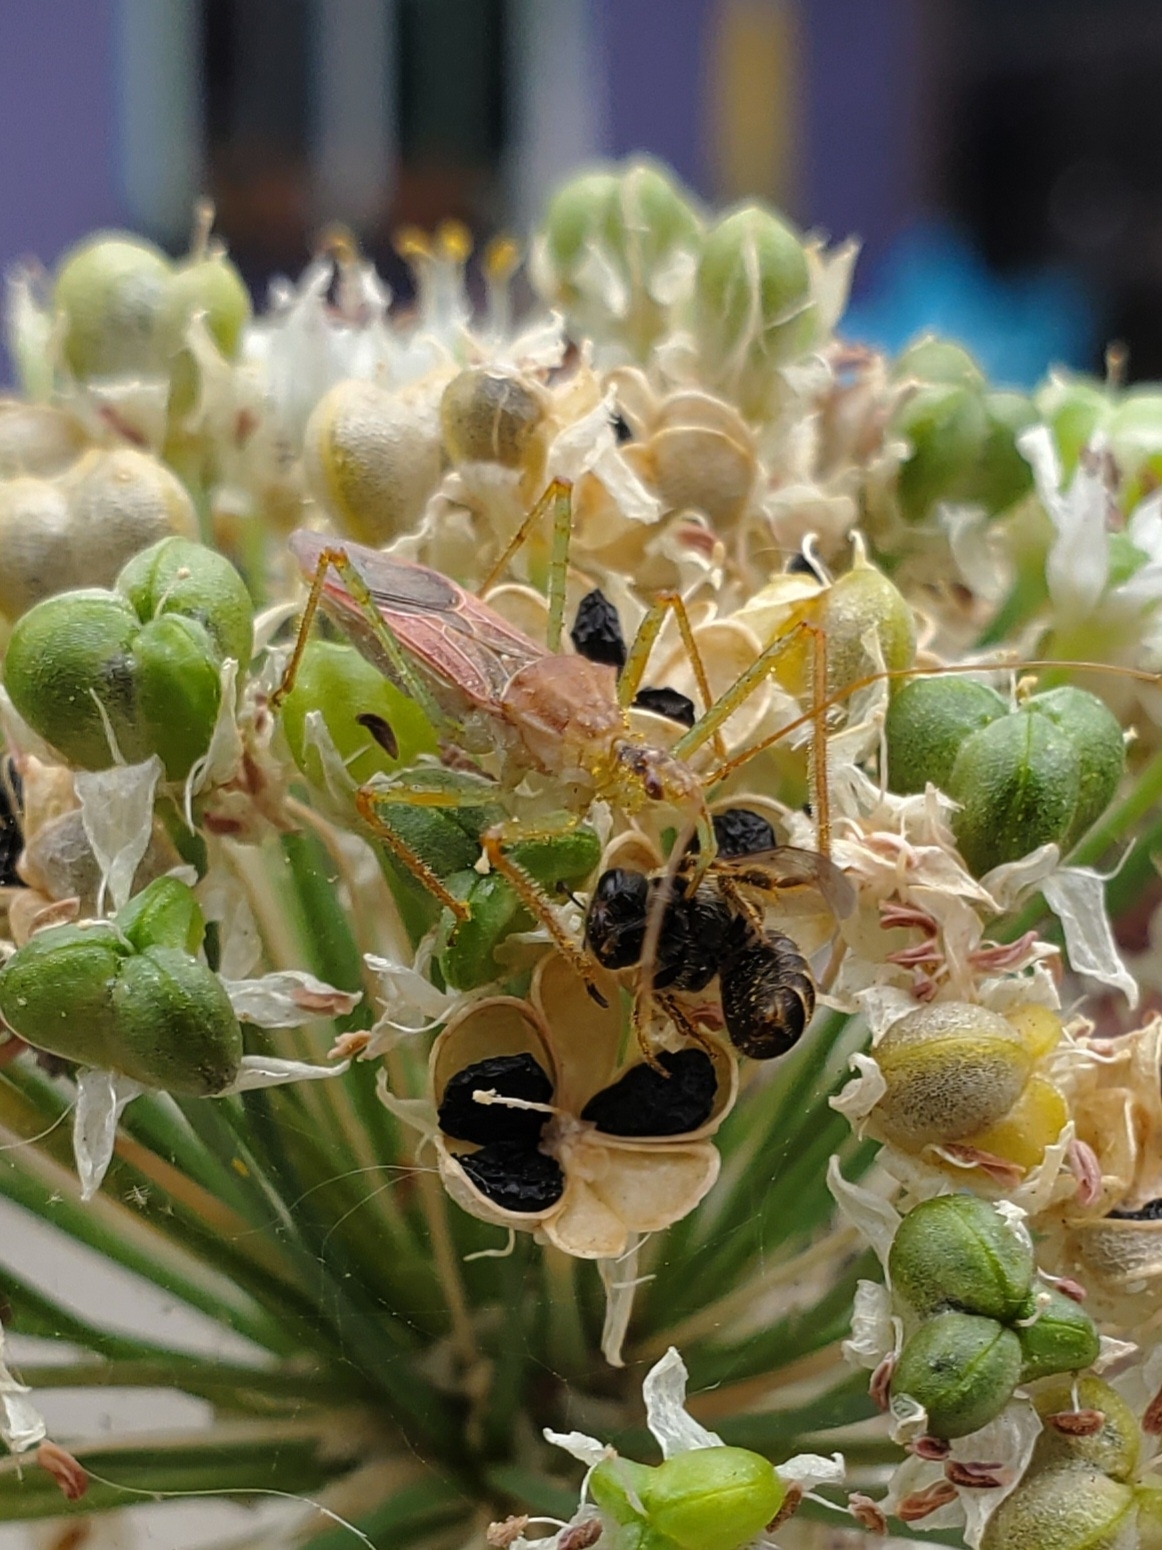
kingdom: Animalia
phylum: Arthropoda
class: Insecta
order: Hemiptera
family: Reduviidae
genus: Zelus
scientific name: Zelus renardii
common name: Assassin bug
